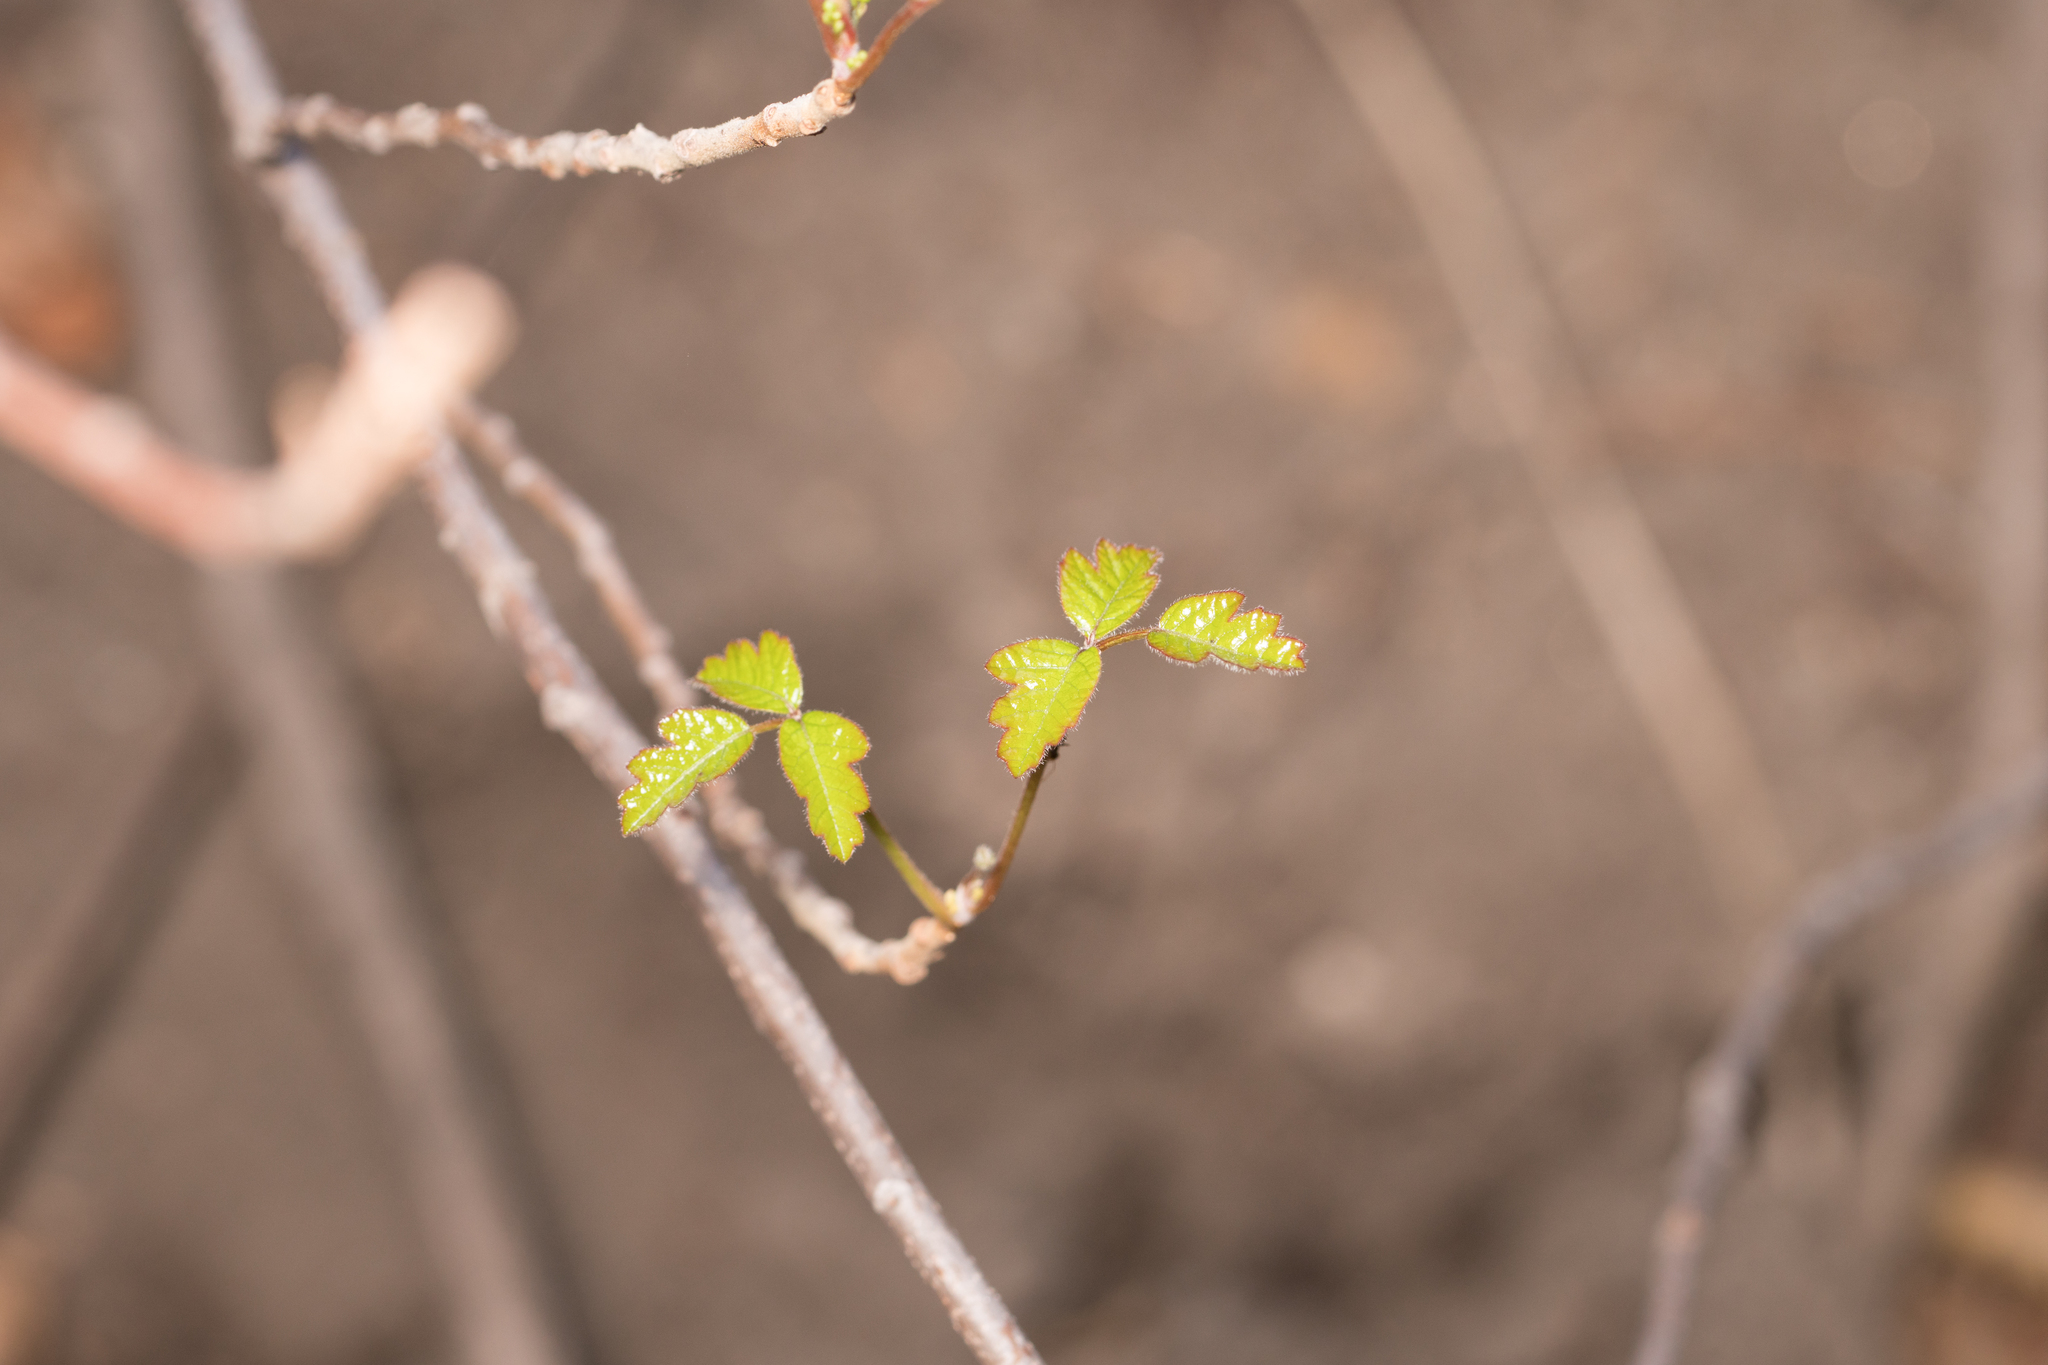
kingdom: Plantae
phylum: Tracheophyta
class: Magnoliopsida
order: Sapindales
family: Anacardiaceae
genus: Toxicodendron
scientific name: Toxicodendron diversilobum
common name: Pacific poison-oak
